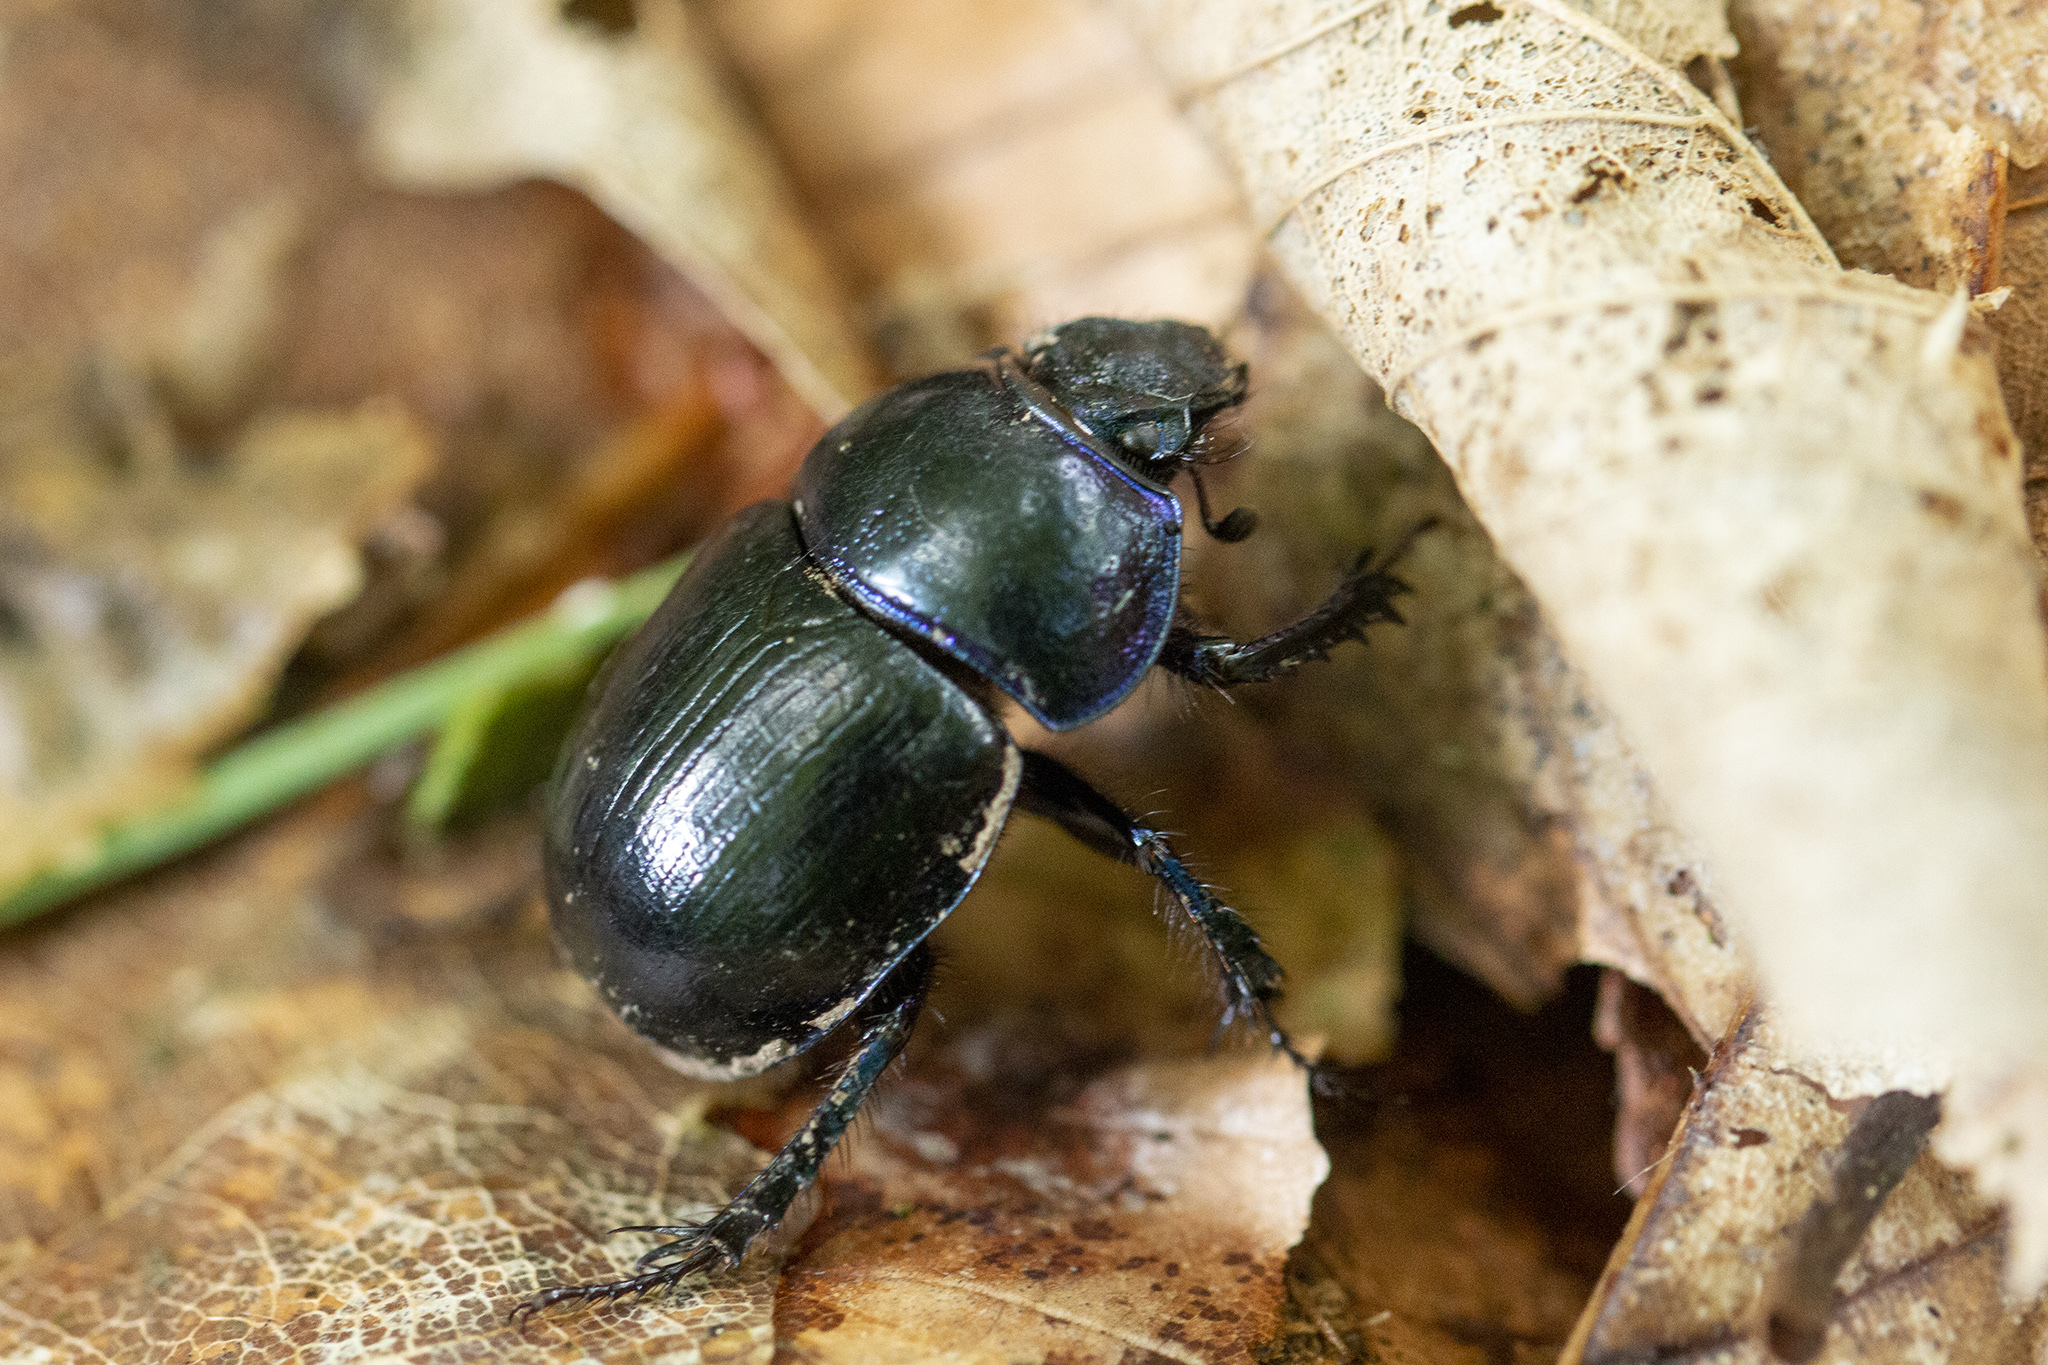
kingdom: Animalia
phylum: Arthropoda
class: Insecta
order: Coleoptera
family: Geotrupidae
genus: Anoplotrupes
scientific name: Anoplotrupes stercorosus
